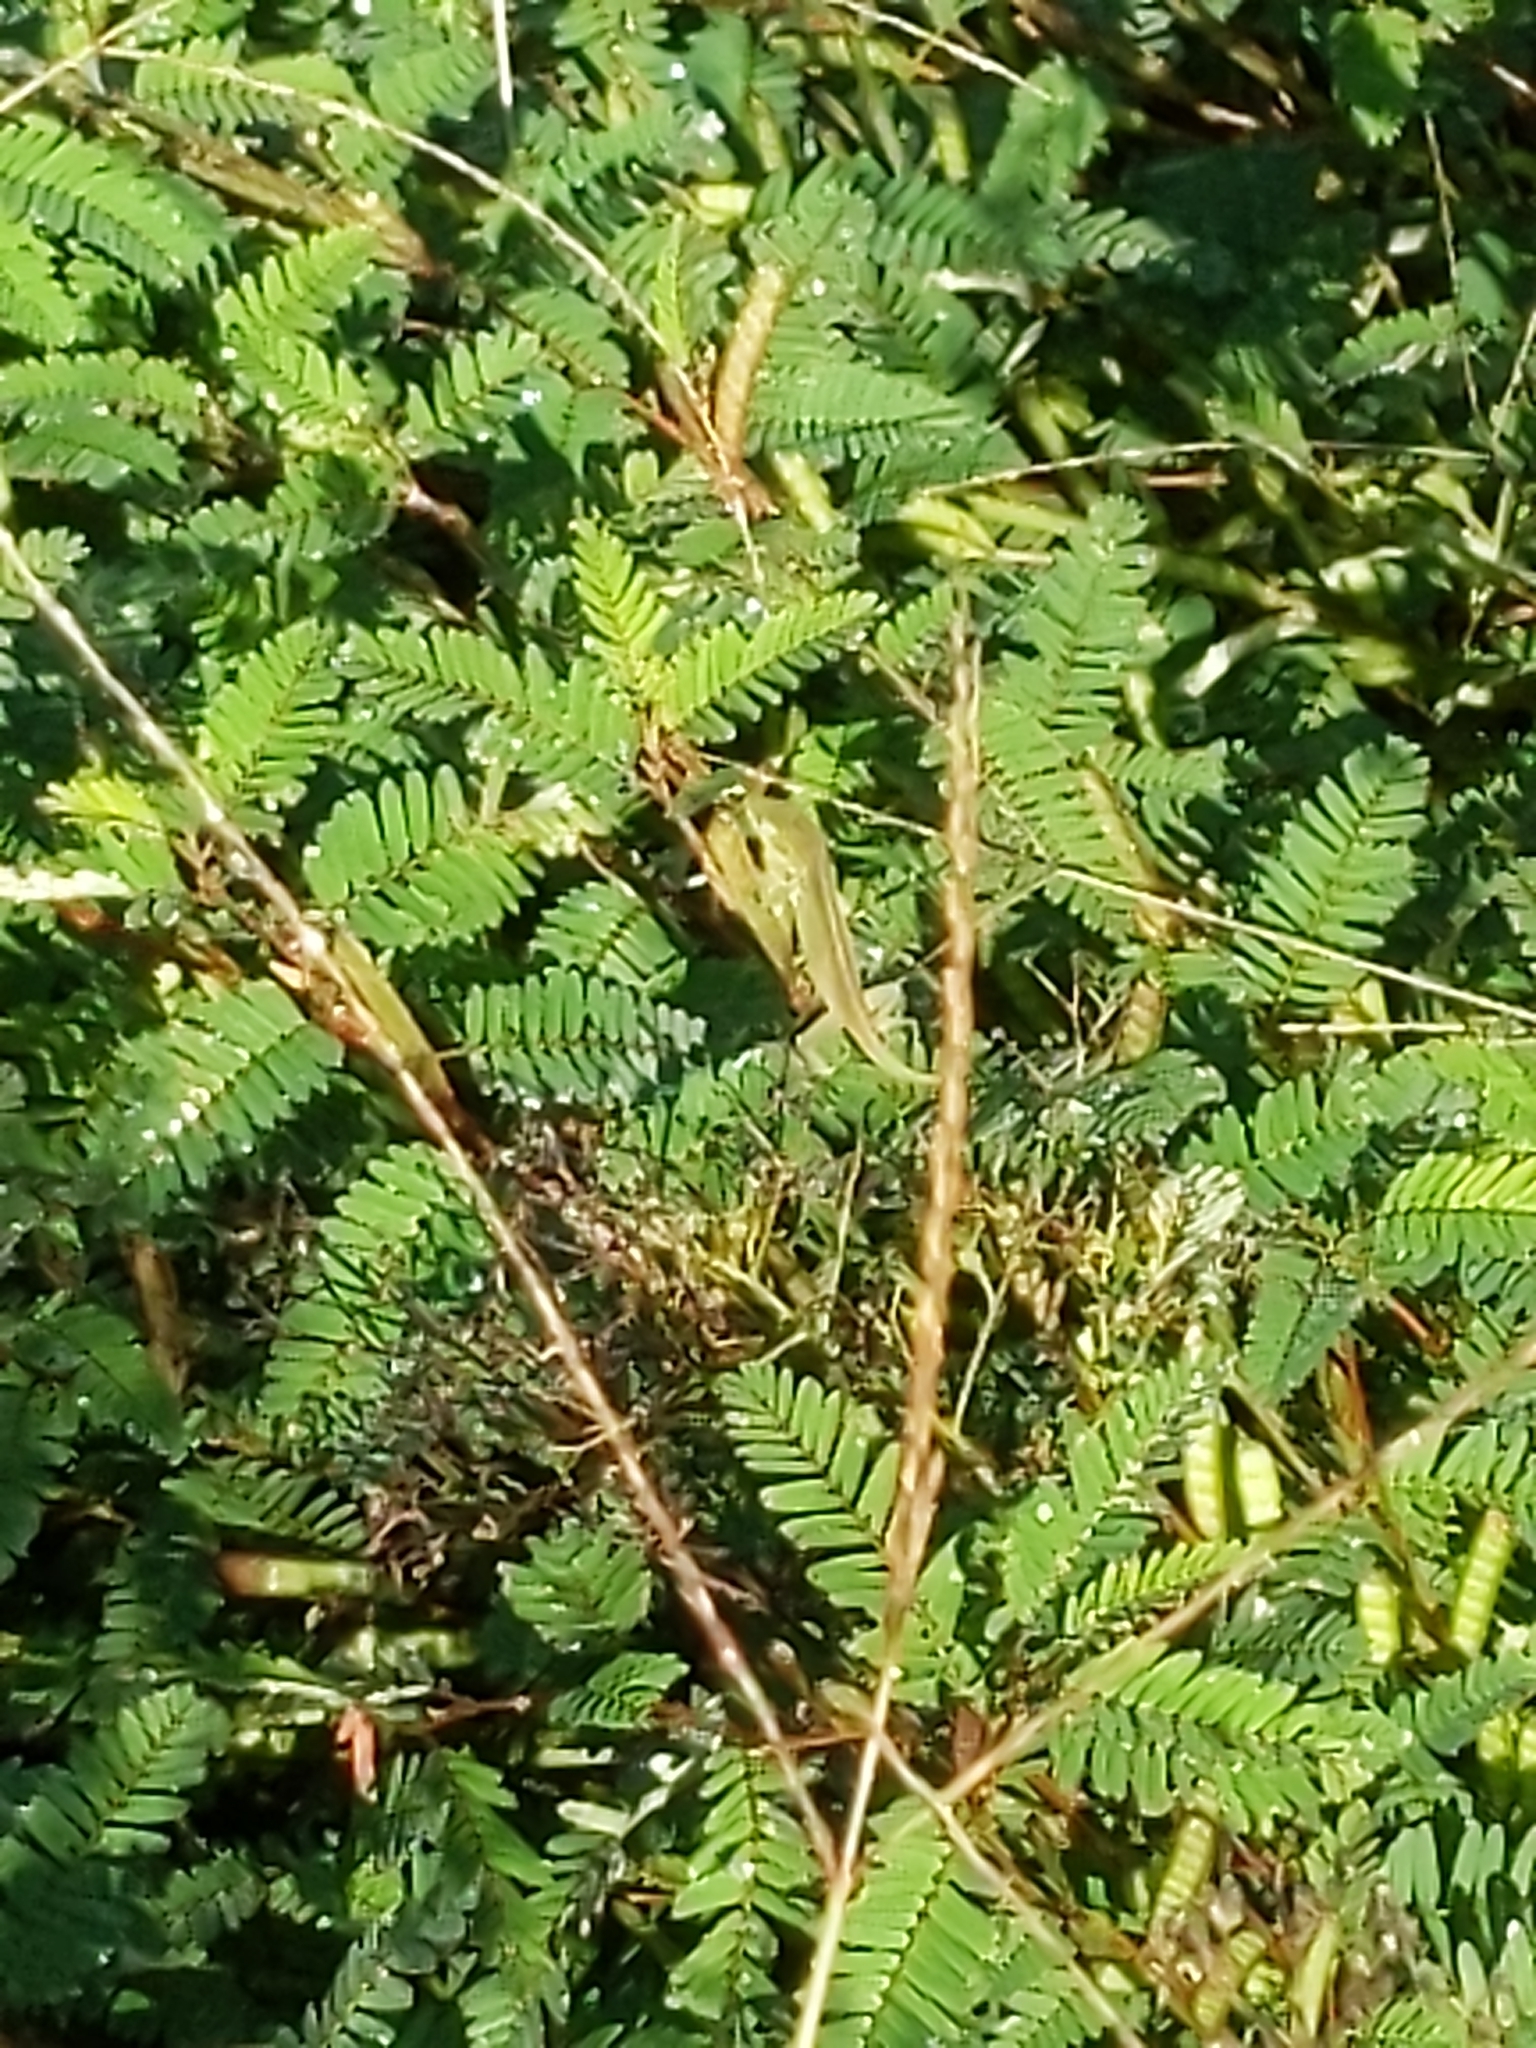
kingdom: Animalia
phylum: Chordata
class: Squamata
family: Dactyloidae
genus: Anolis
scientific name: Anolis carolinensis
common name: Green anole
